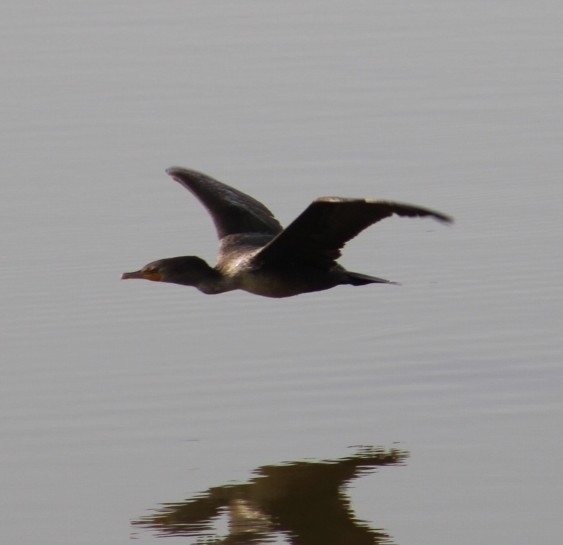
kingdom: Animalia
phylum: Chordata
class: Aves
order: Suliformes
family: Phalacrocoracidae
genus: Phalacrocorax
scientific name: Phalacrocorax auritus
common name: Double-crested cormorant
